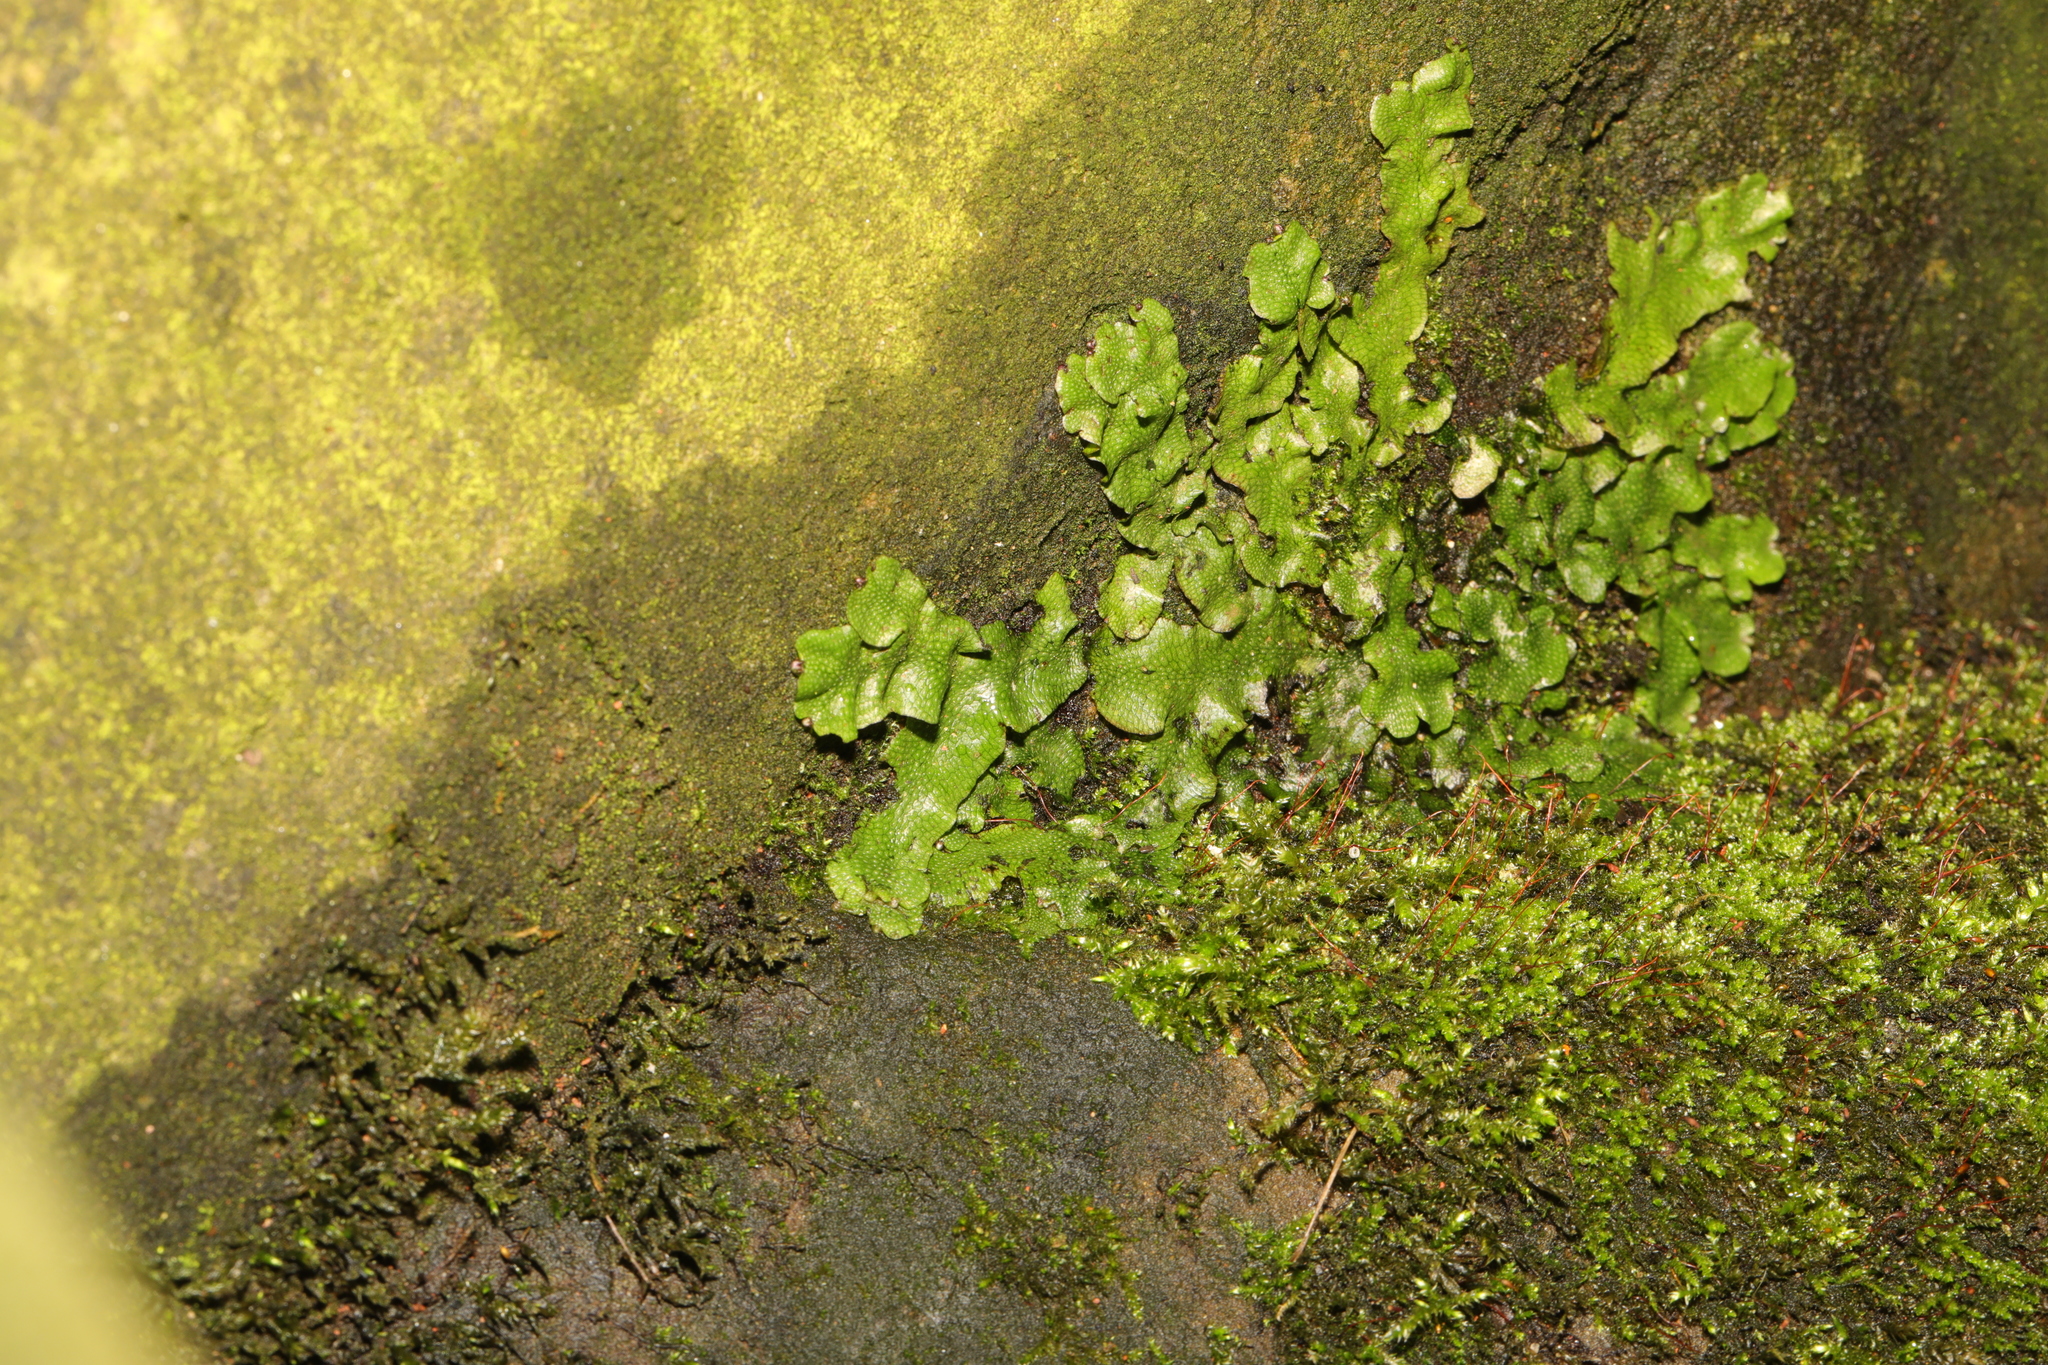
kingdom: Plantae
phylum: Marchantiophyta
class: Marchantiopsida
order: Marchantiales
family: Conocephalaceae
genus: Conocephalum
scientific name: Conocephalum conicum
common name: Great scented liverwort
